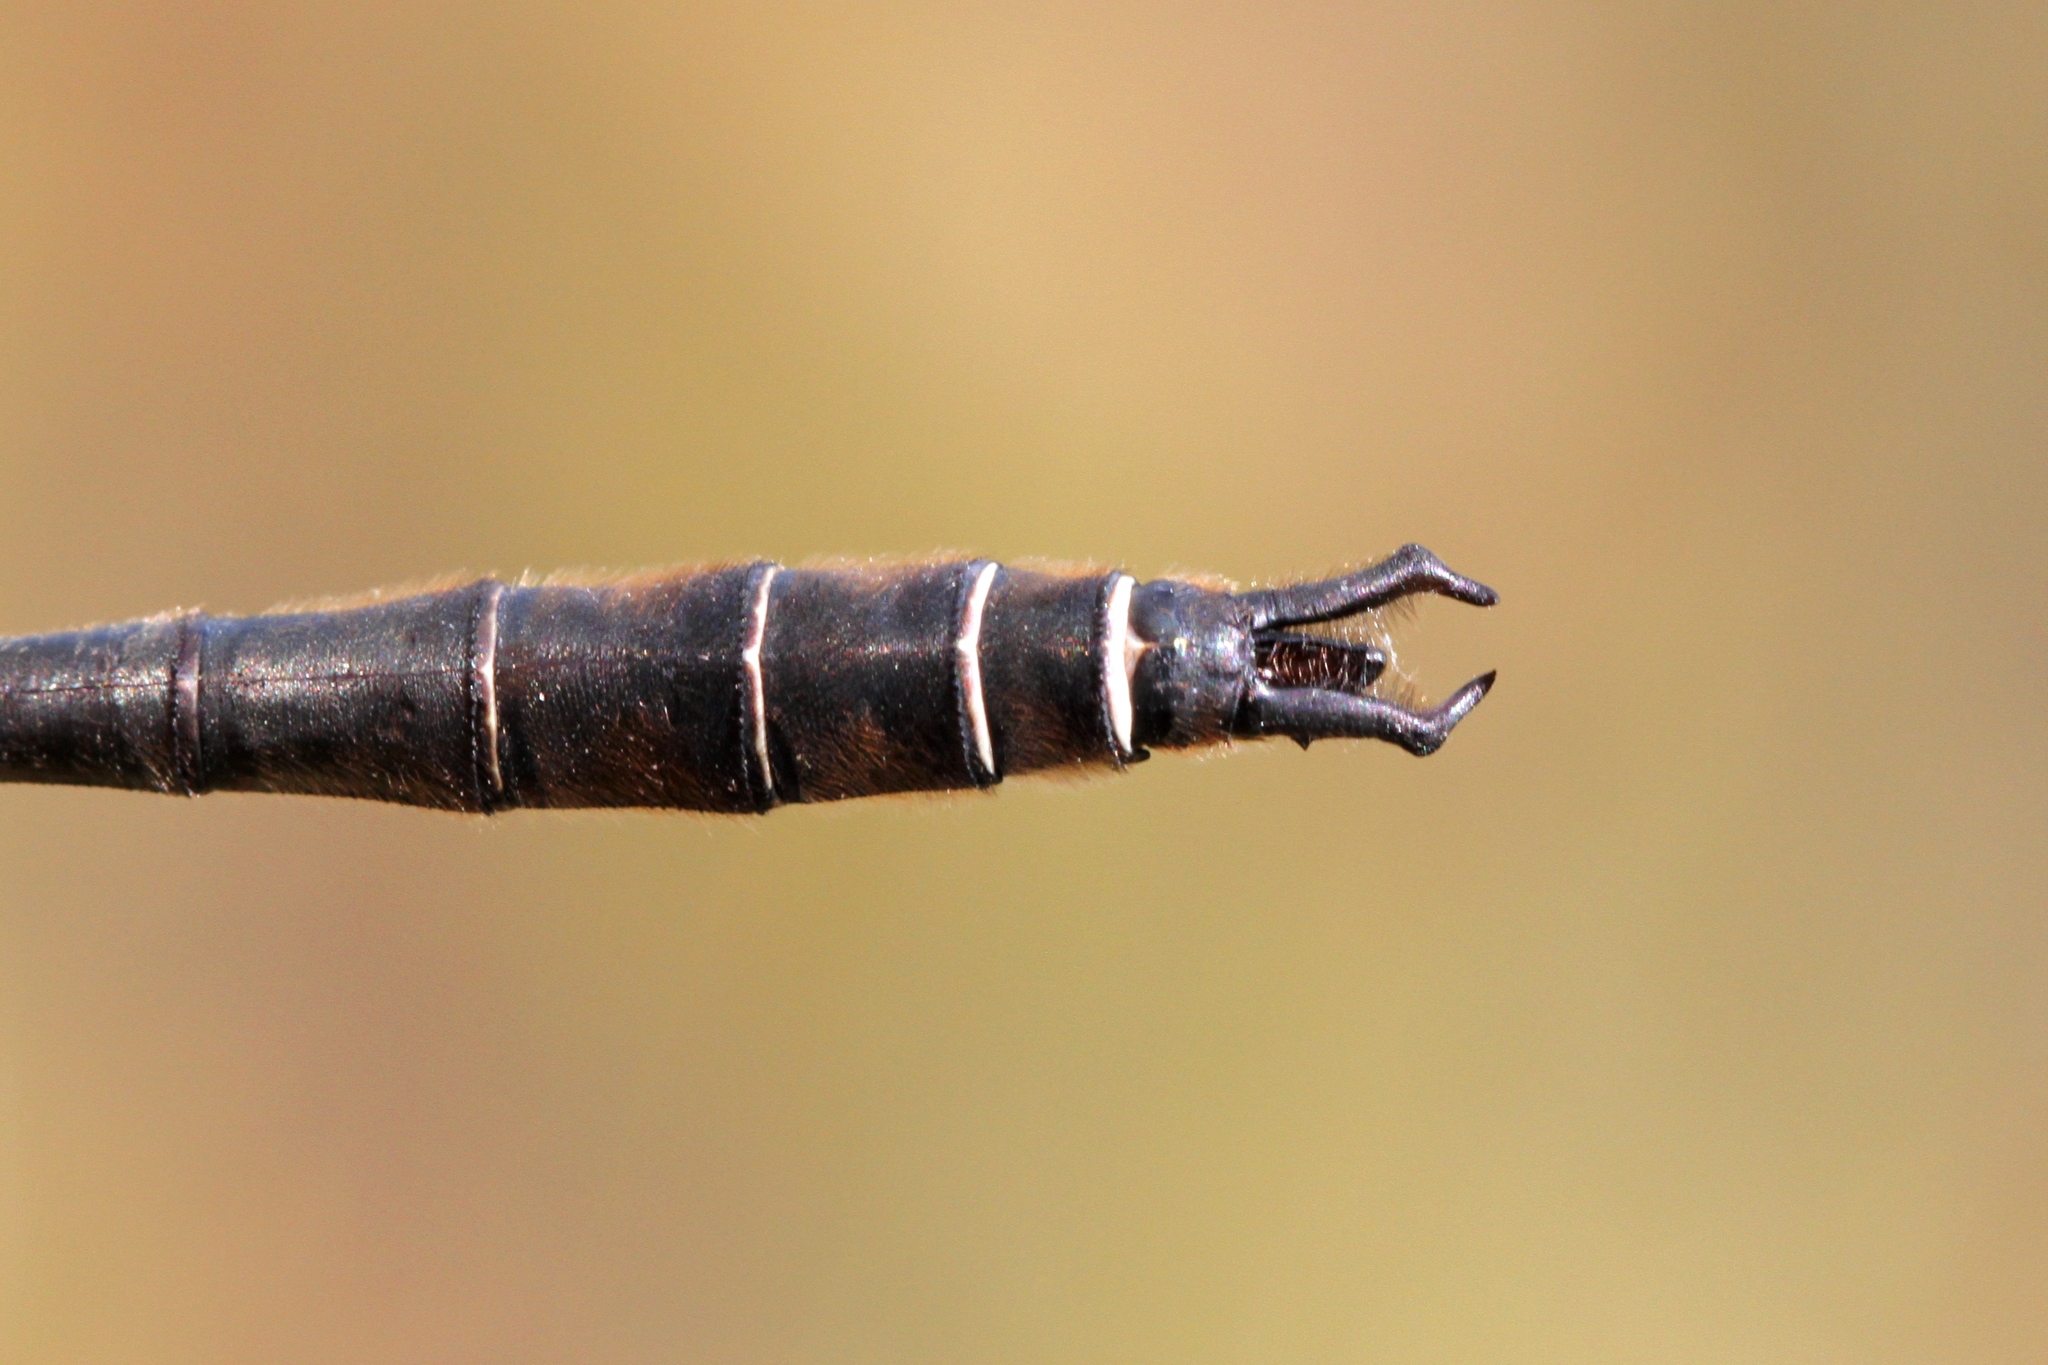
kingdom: Animalia
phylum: Arthropoda
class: Insecta
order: Odonata
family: Corduliidae
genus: Somatochlora
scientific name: Somatochlora septentrionalis
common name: Muskeg emerald
